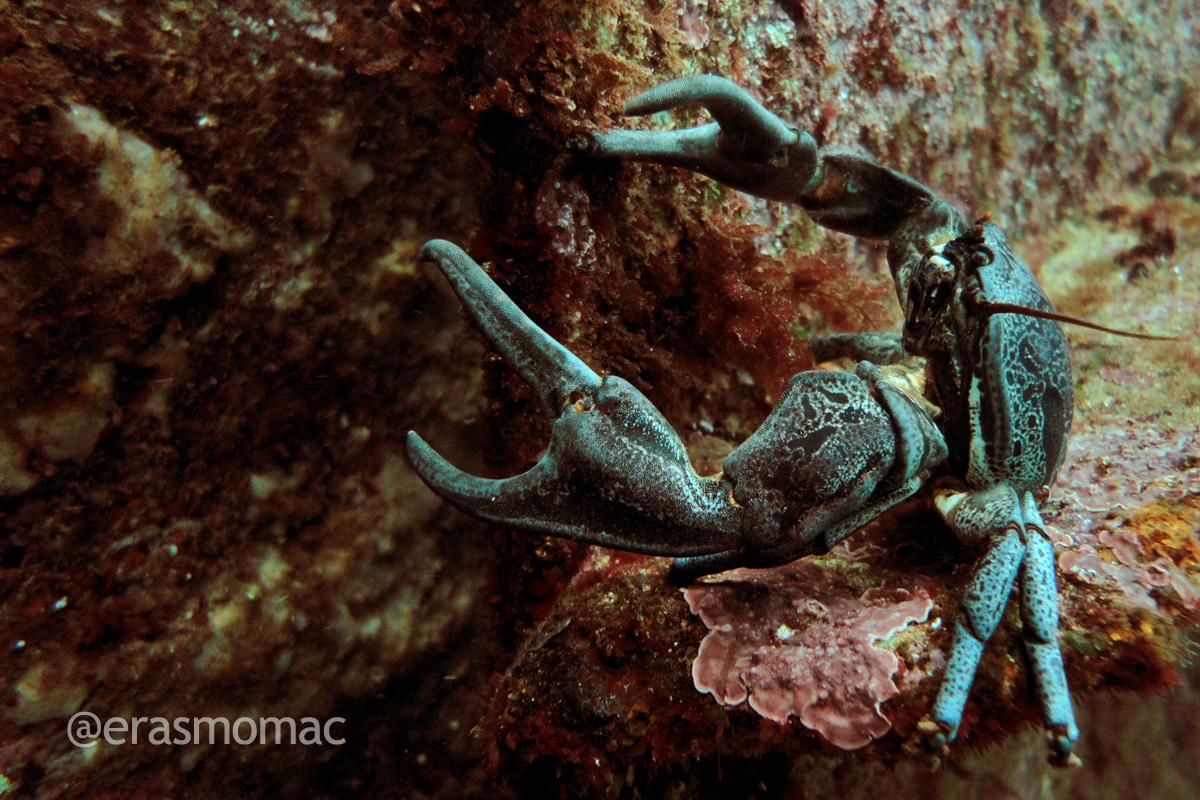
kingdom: Animalia
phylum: Arthropoda
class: Malacostraca
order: Decapoda
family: Porcellanidae
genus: Petrolisthes
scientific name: Petrolisthes punctatus
